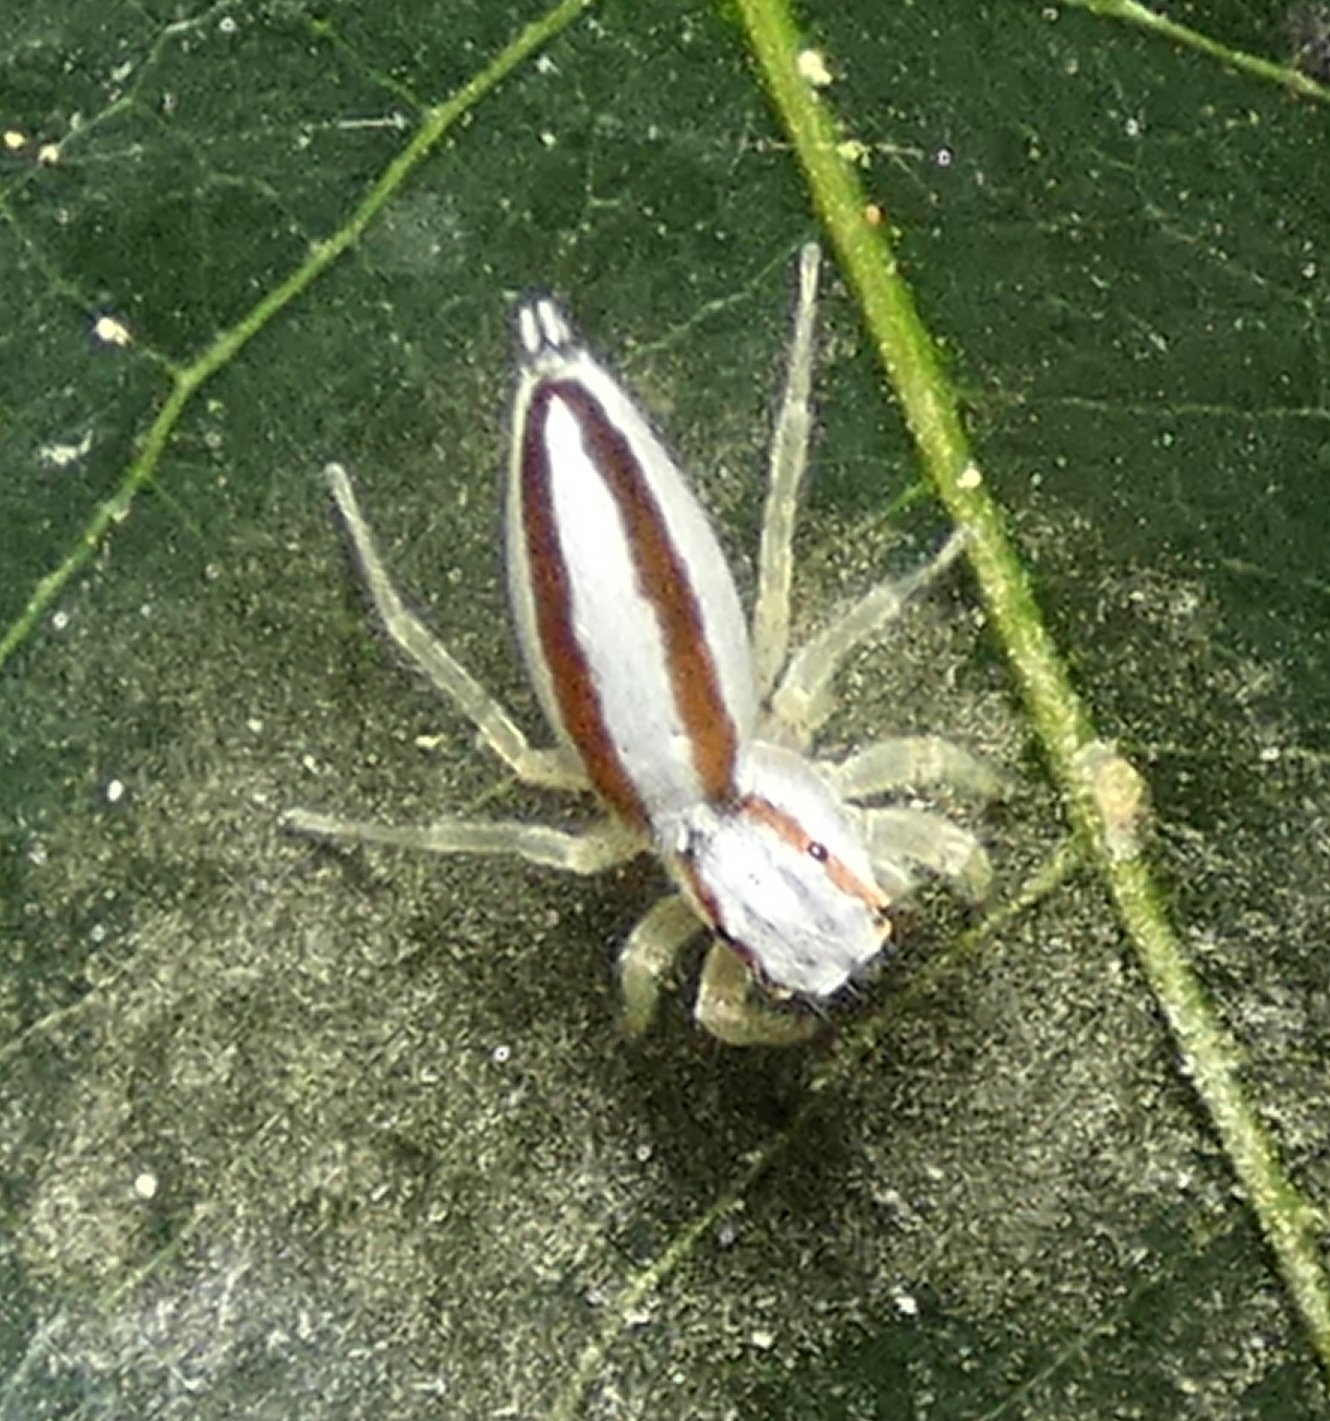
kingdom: Animalia
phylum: Arthropoda
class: Arachnida
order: Araneae
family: Salticidae
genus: Chira
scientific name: Chira trivittata
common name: Jumping spiders
